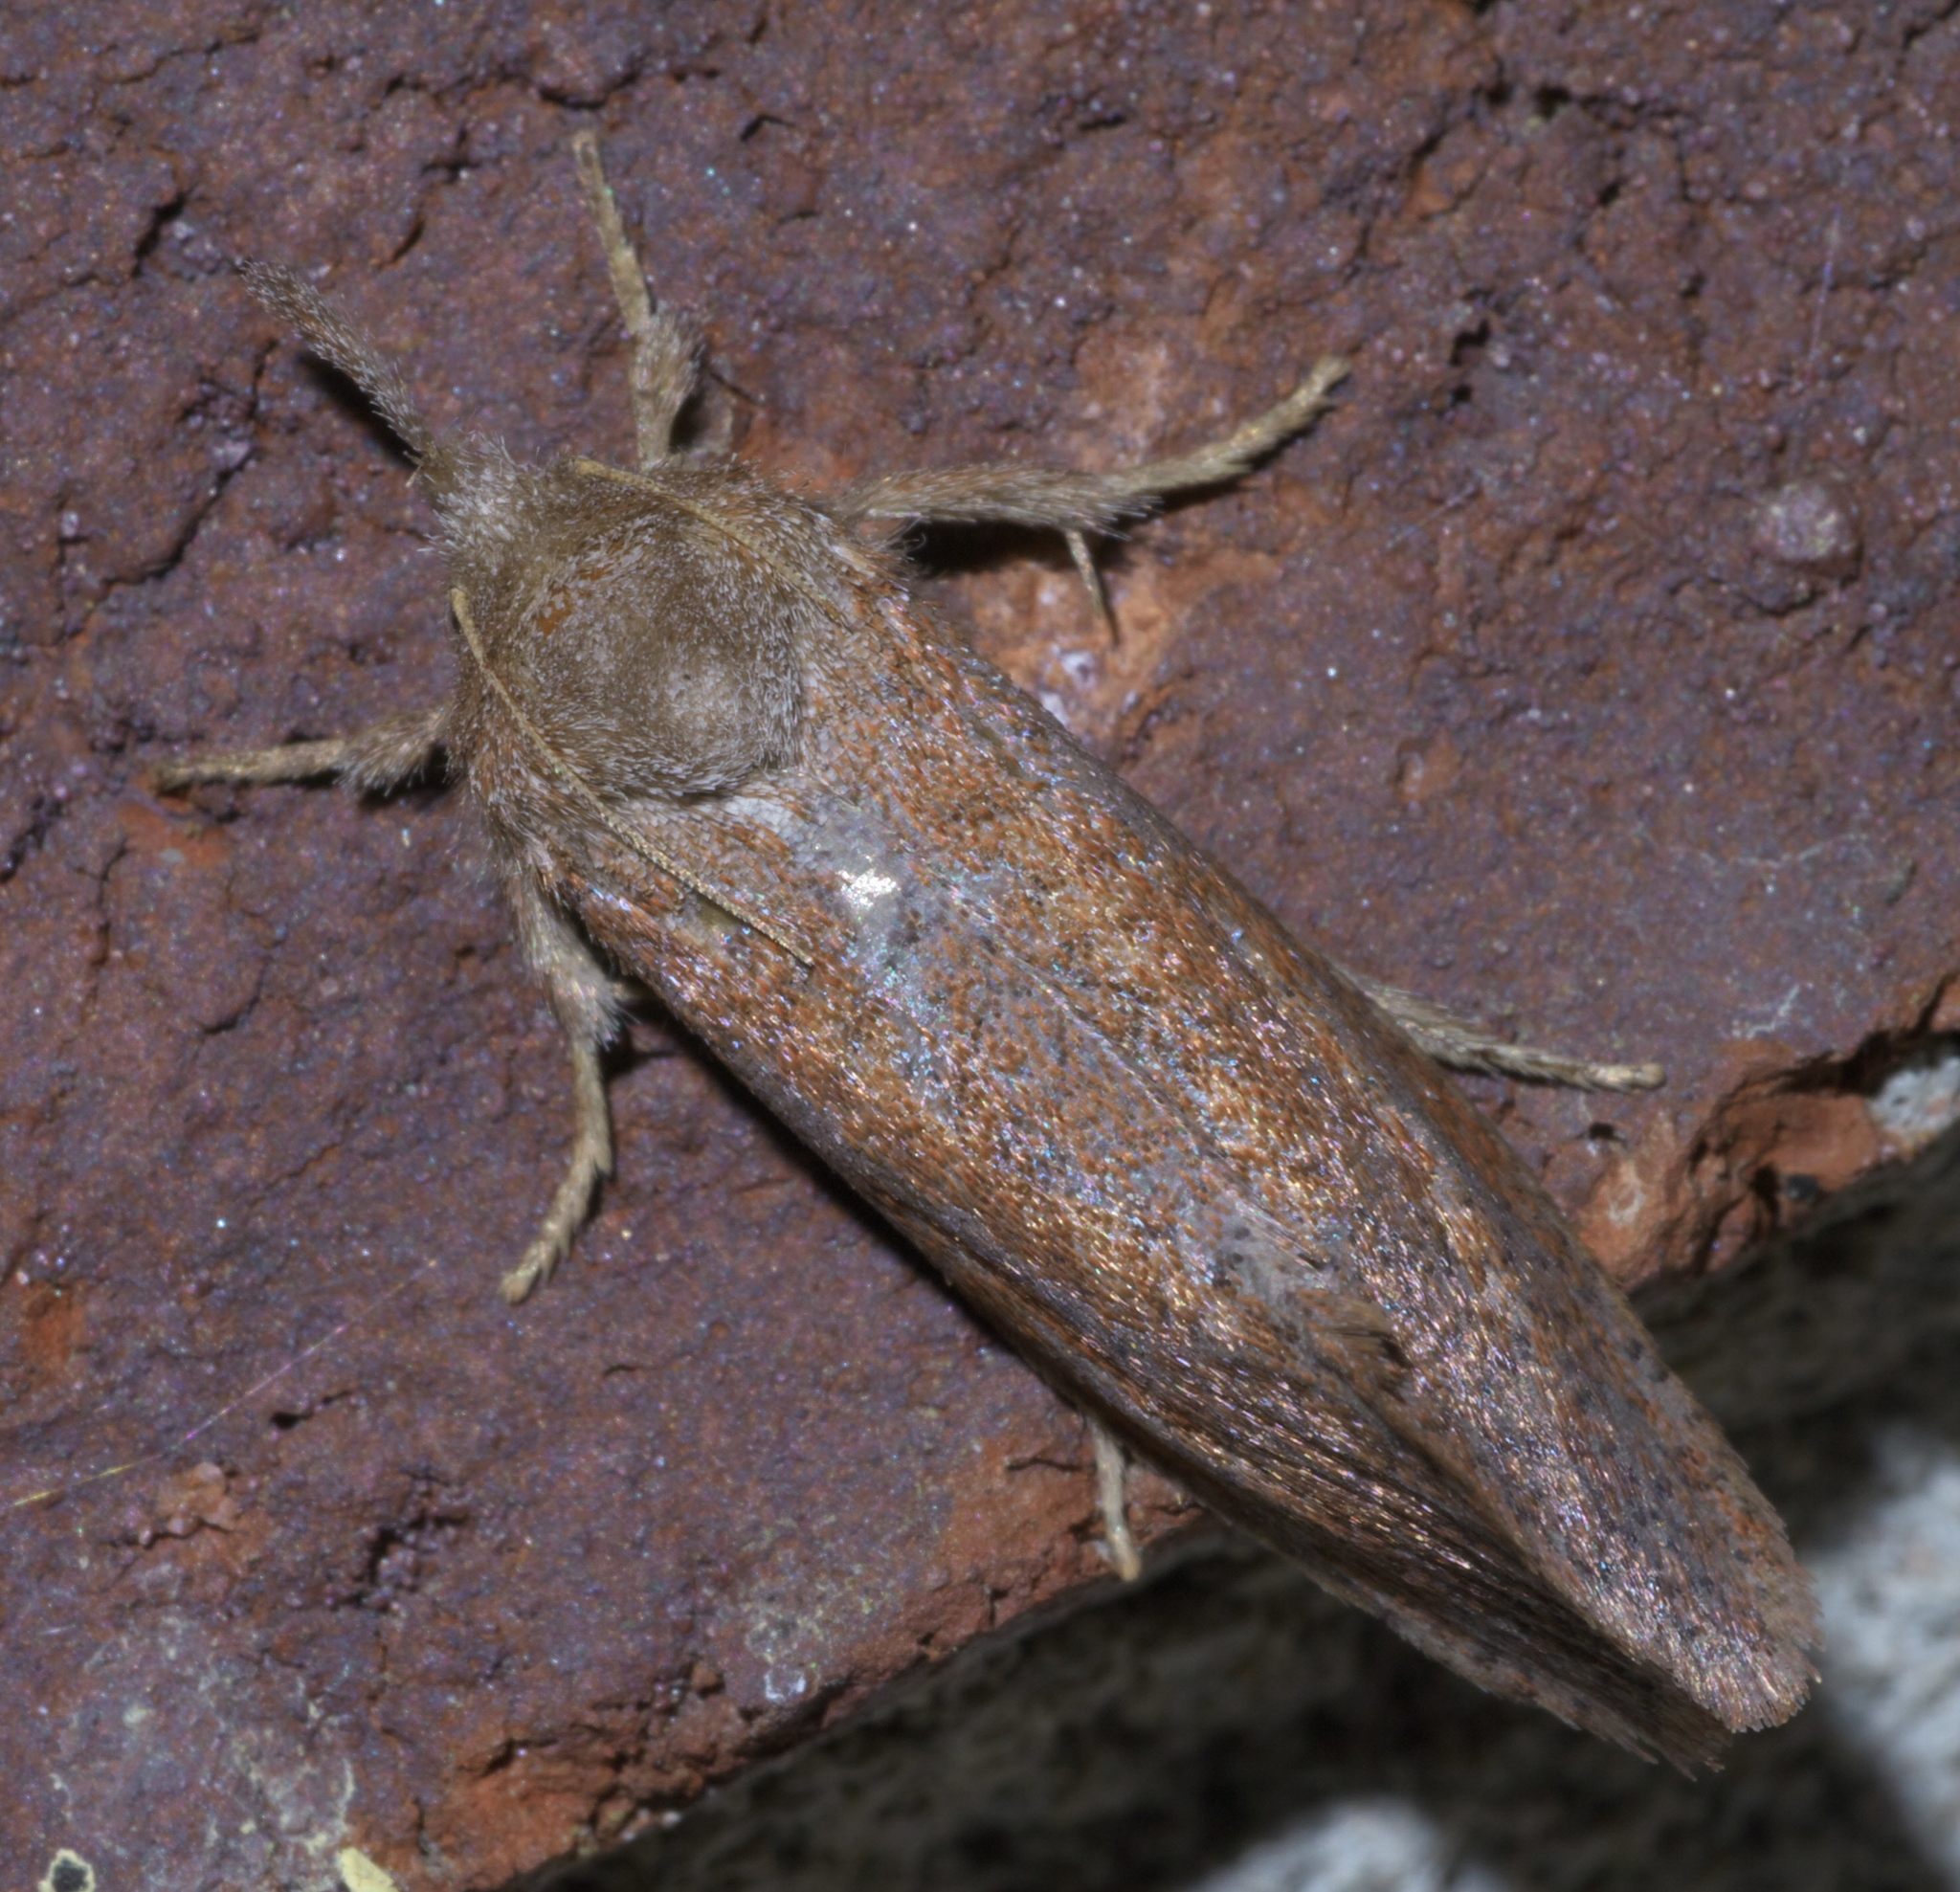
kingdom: Animalia
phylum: Arthropoda
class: Insecta
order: Lepidoptera
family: Tineidae
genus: Acrolophus
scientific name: Acrolophus plumifrontella
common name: Eastern grass tubeworm moth
